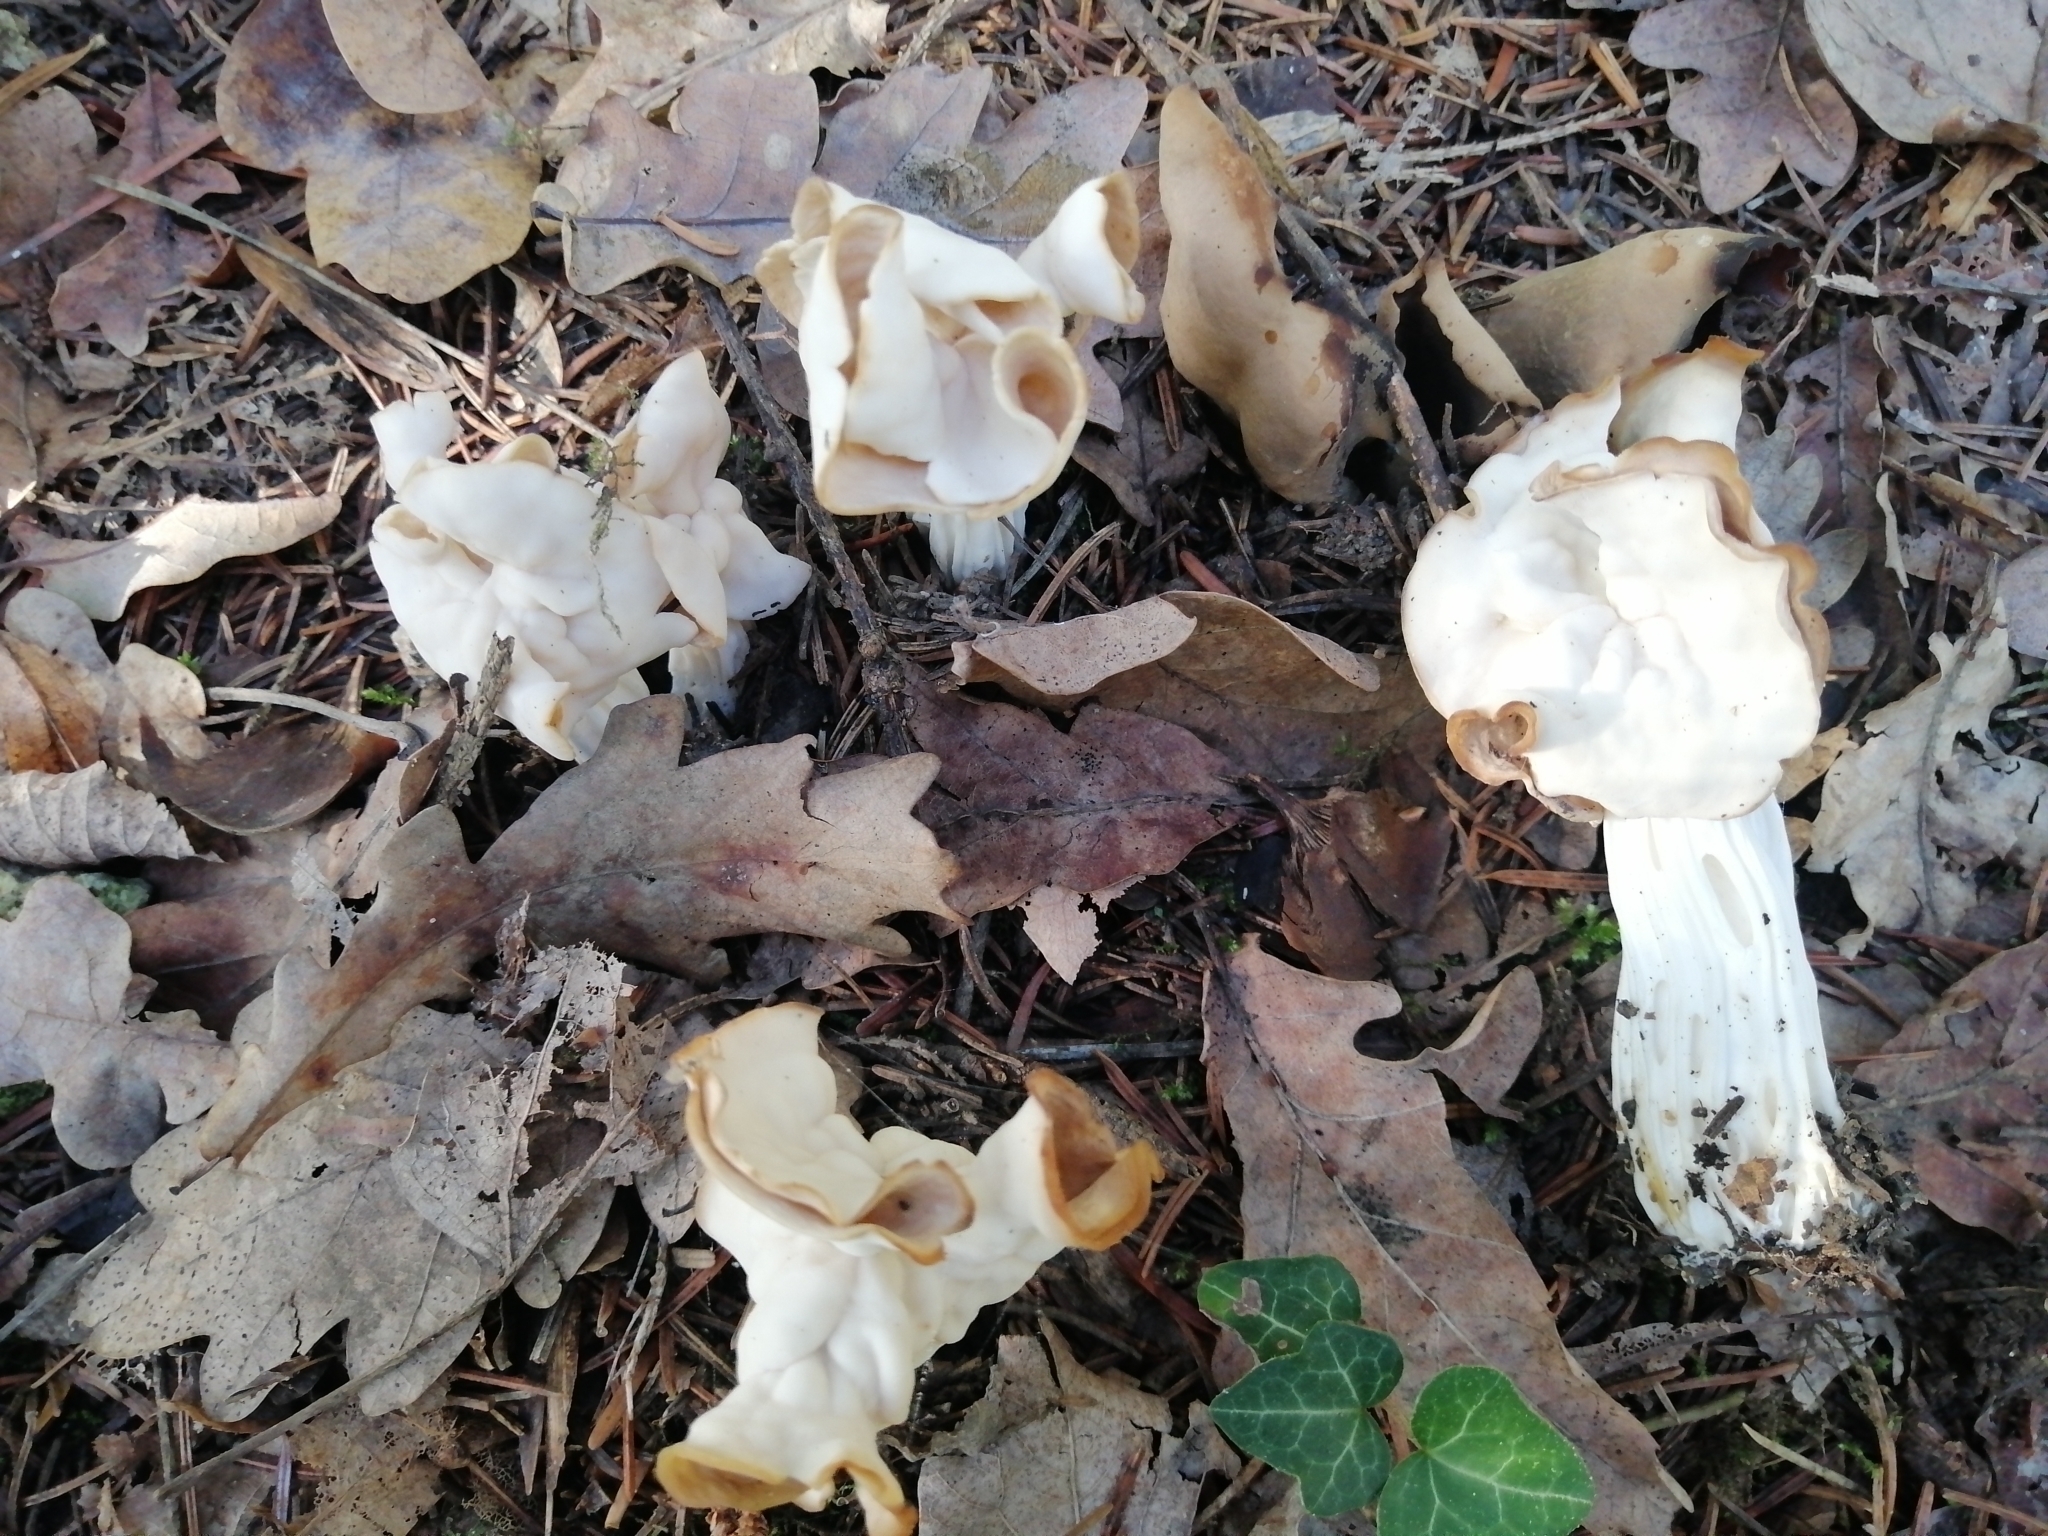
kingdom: Fungi
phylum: Ascomycota
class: Pezizomycetes
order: Pezizales
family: Helvellaceae
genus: Helvella
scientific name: Helvella crispa
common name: White saddle
